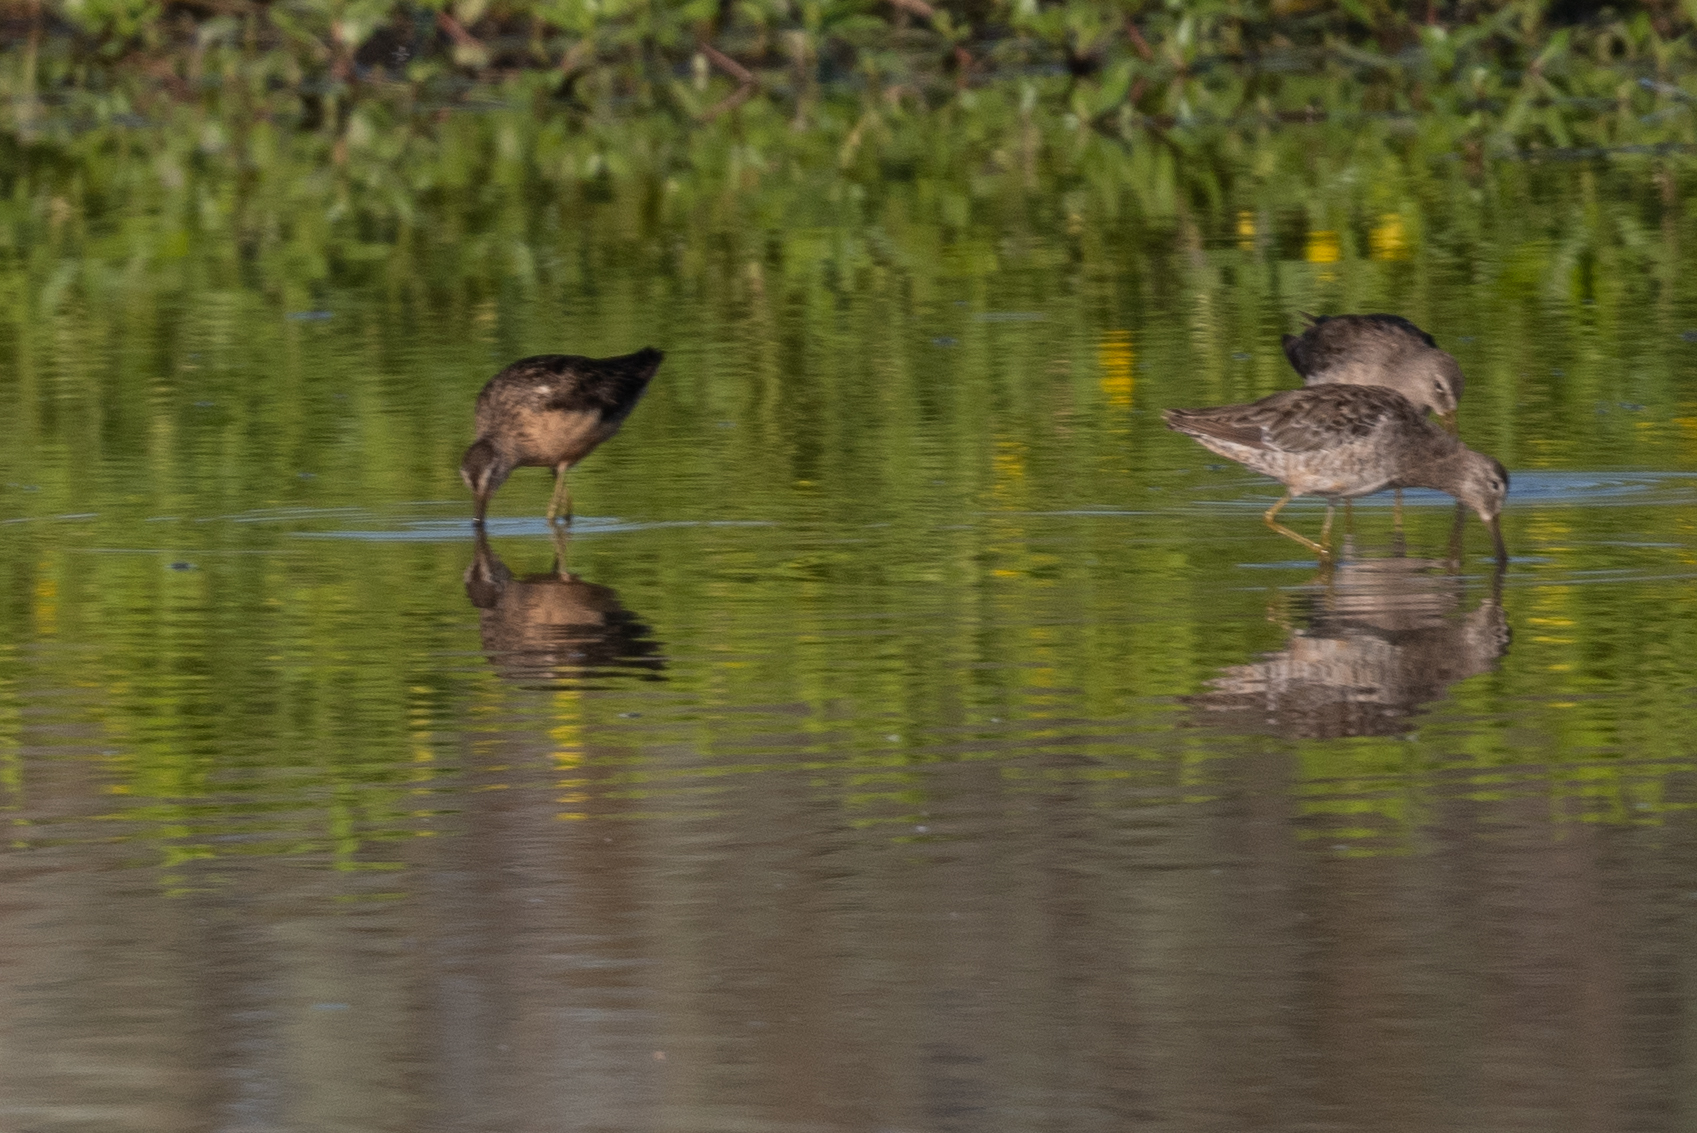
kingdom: Animalia
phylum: Chordata
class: Aves
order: Charadriiformes
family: Scolopacidae
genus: Limnodromus
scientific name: Limnodromus scolopaceus
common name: Long-billed dowitcher
